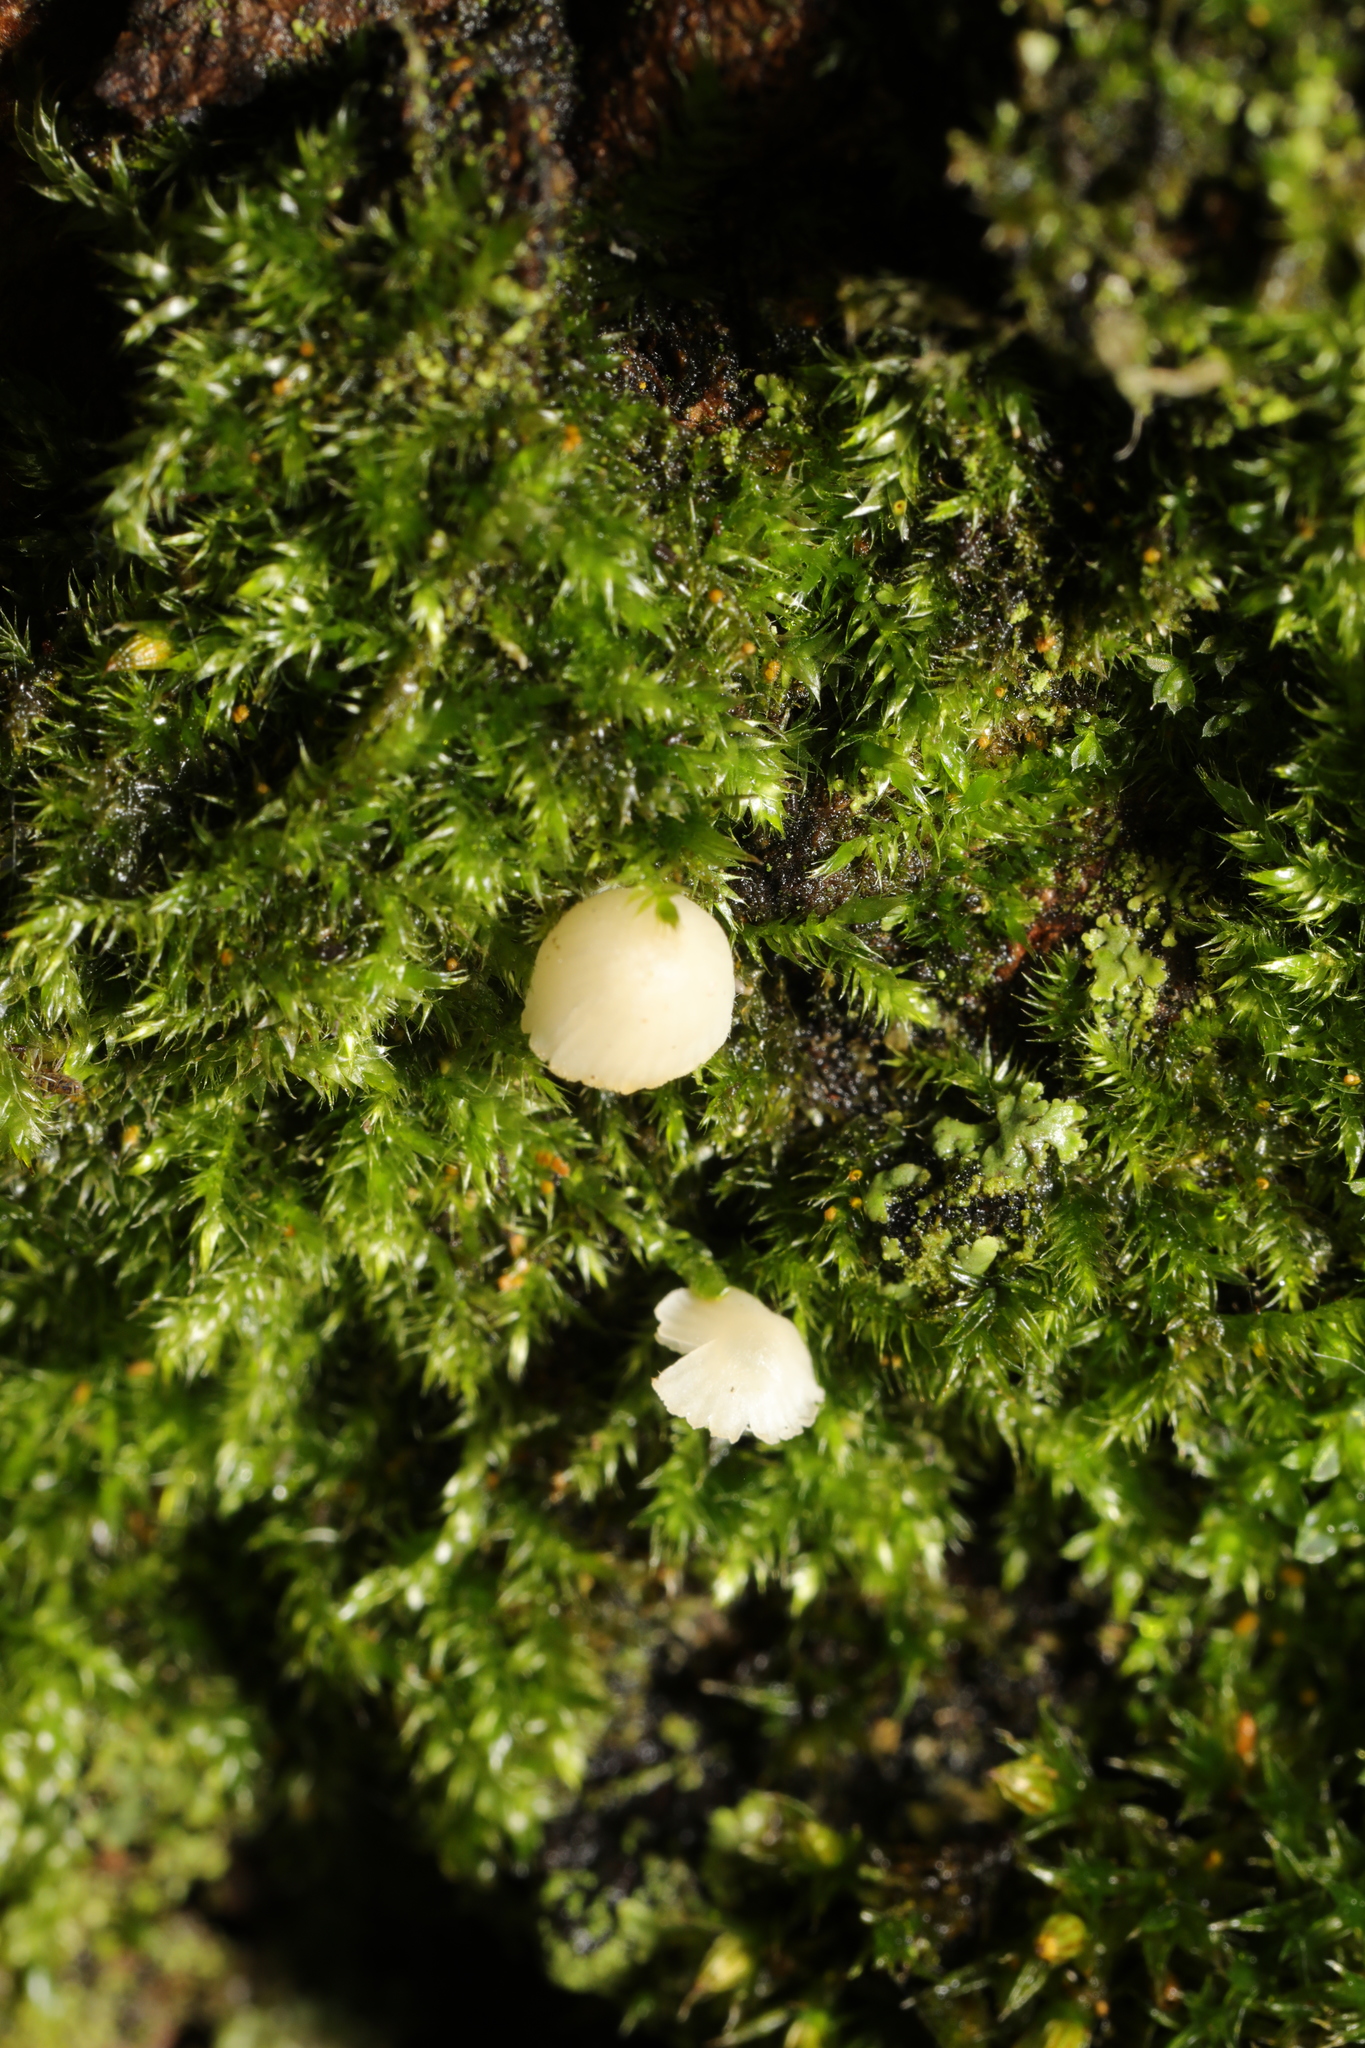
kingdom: Fungi
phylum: Basidiomycota
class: Agaricomycetes
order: Agaricales
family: Mycenaceae
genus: Mycena
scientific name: Mycena
